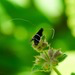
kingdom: Animalia
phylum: Arthropoda
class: Insecta
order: Lepidoptera
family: Adelidae
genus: Adela
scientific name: Adela septentrionella
